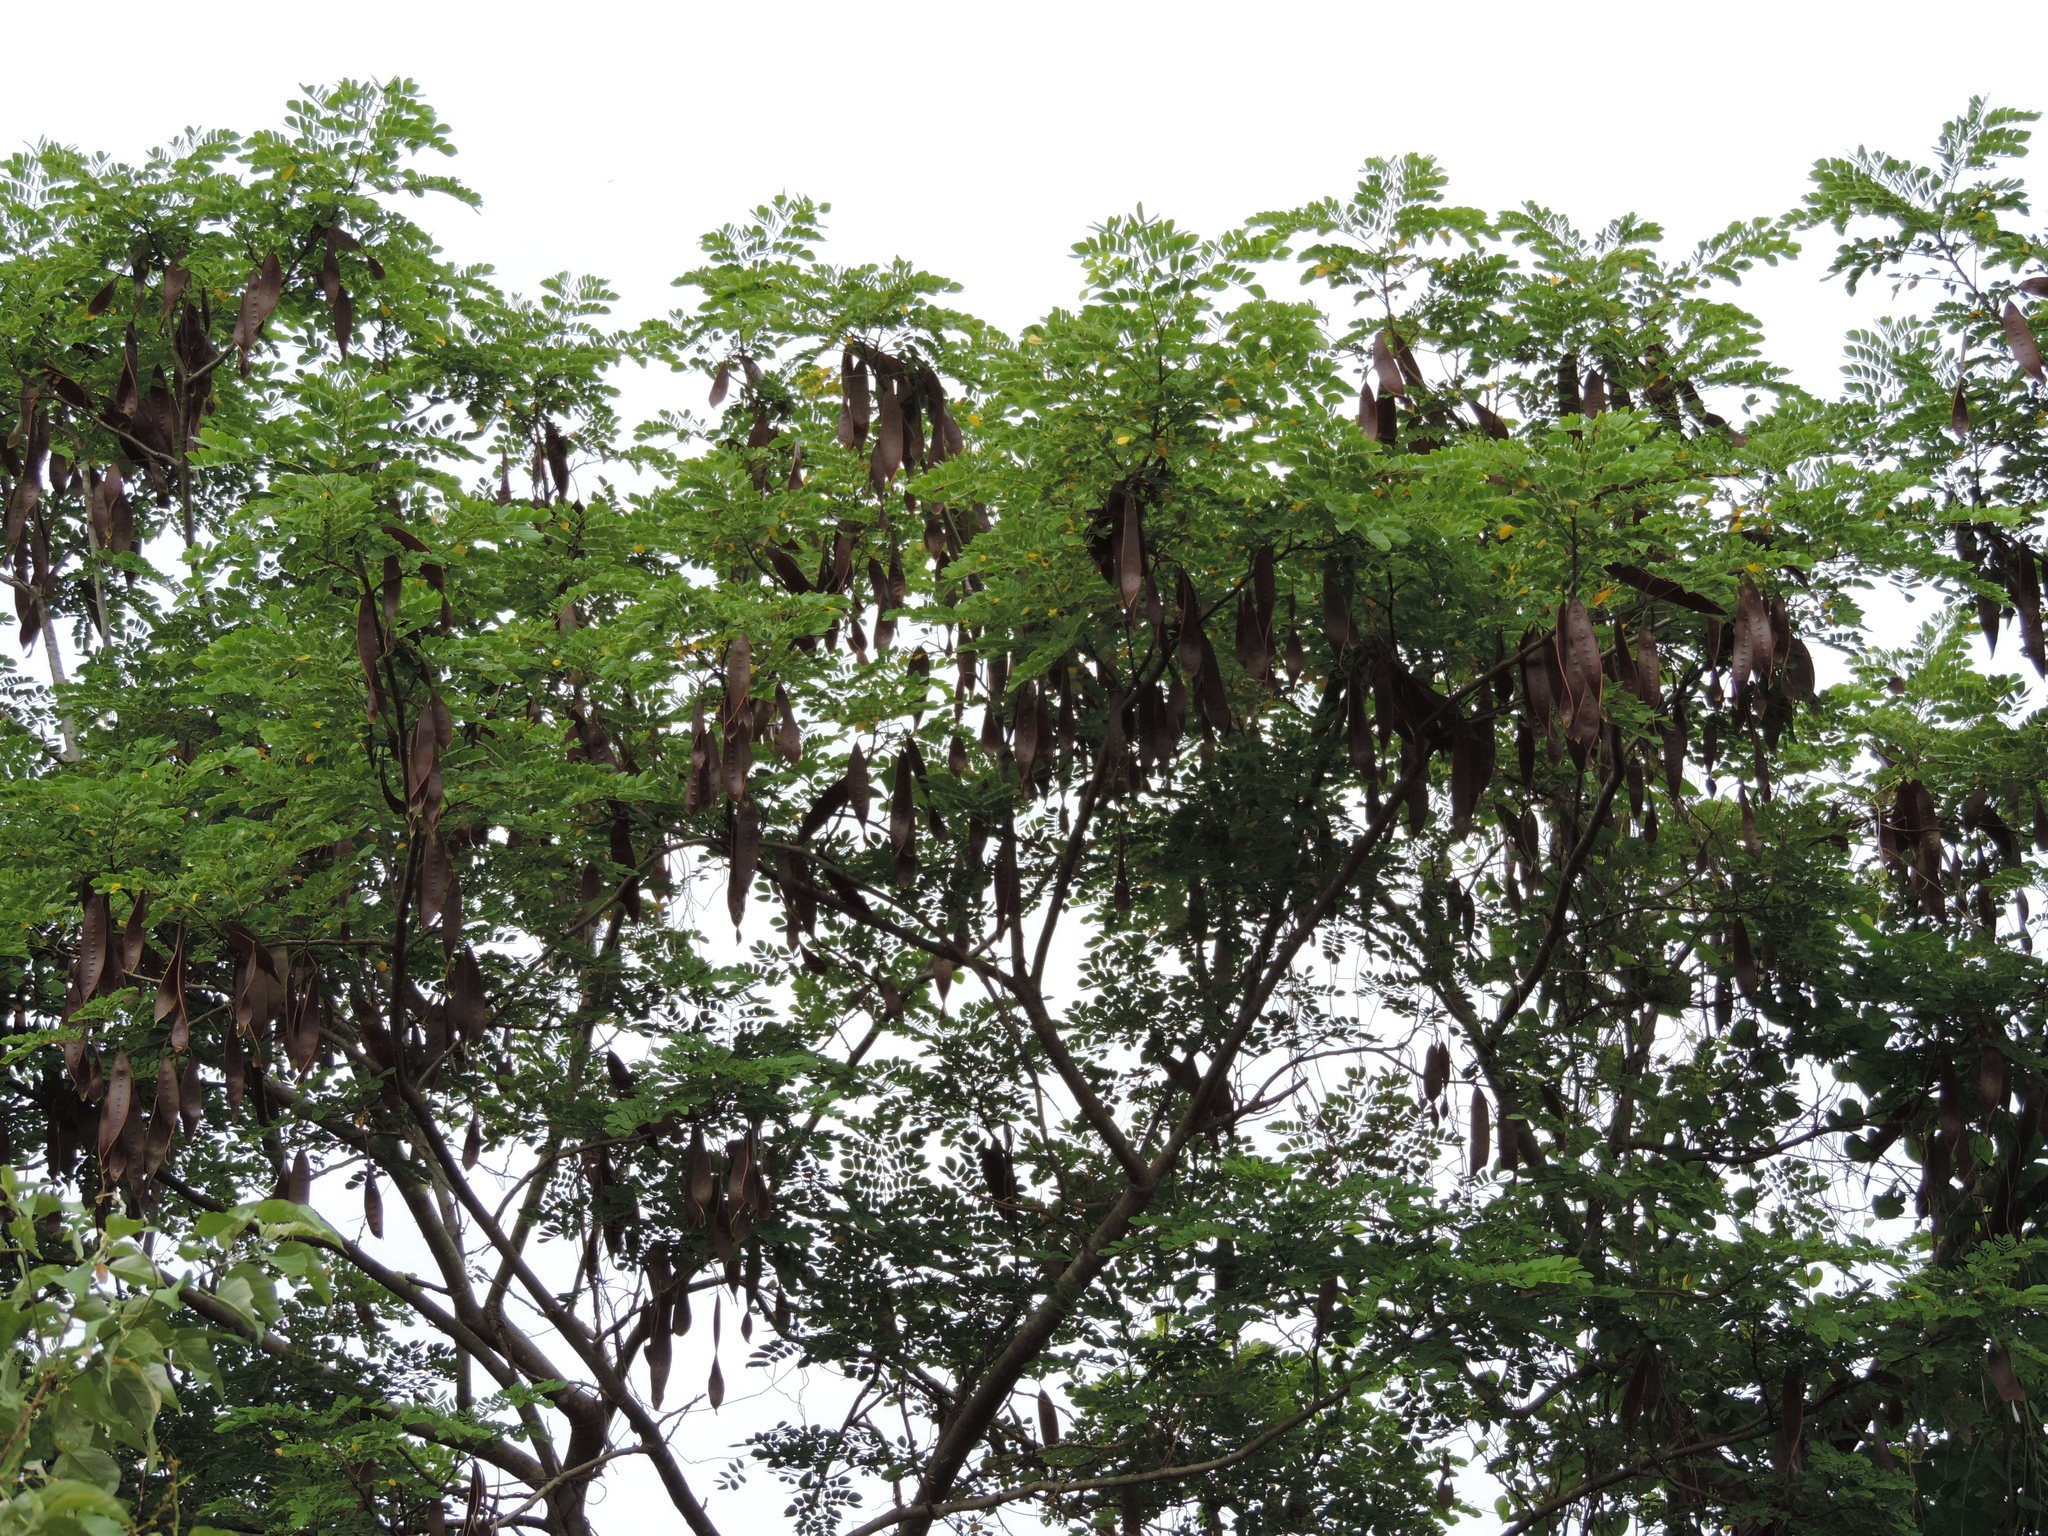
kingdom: Plantae
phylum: Tracheophyta
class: Magnoliopsida
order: Fabales
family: Fabaceae
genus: Albizia
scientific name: Albizia occidentalis
